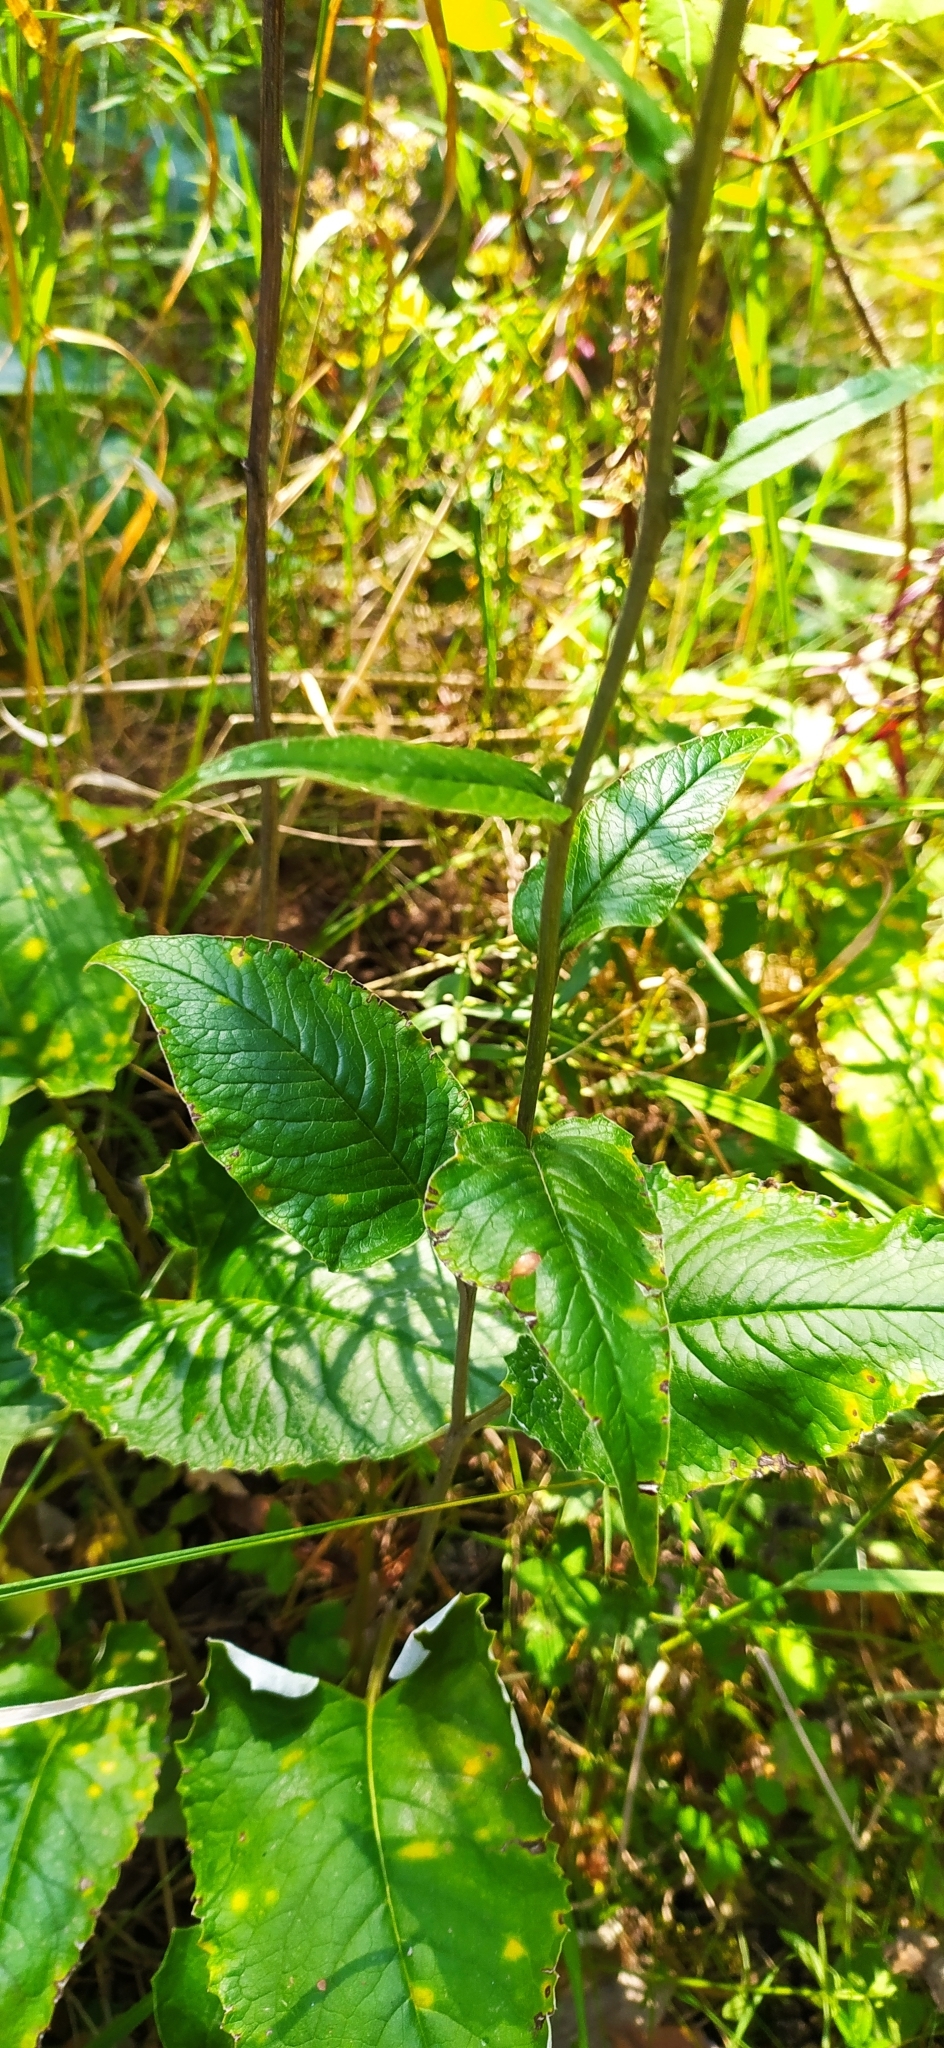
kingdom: Plantae
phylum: Tracheophyta
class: Magnoliopsida
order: Asterales
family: Asteraceae
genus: Saussurea
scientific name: Saussurea controversa
